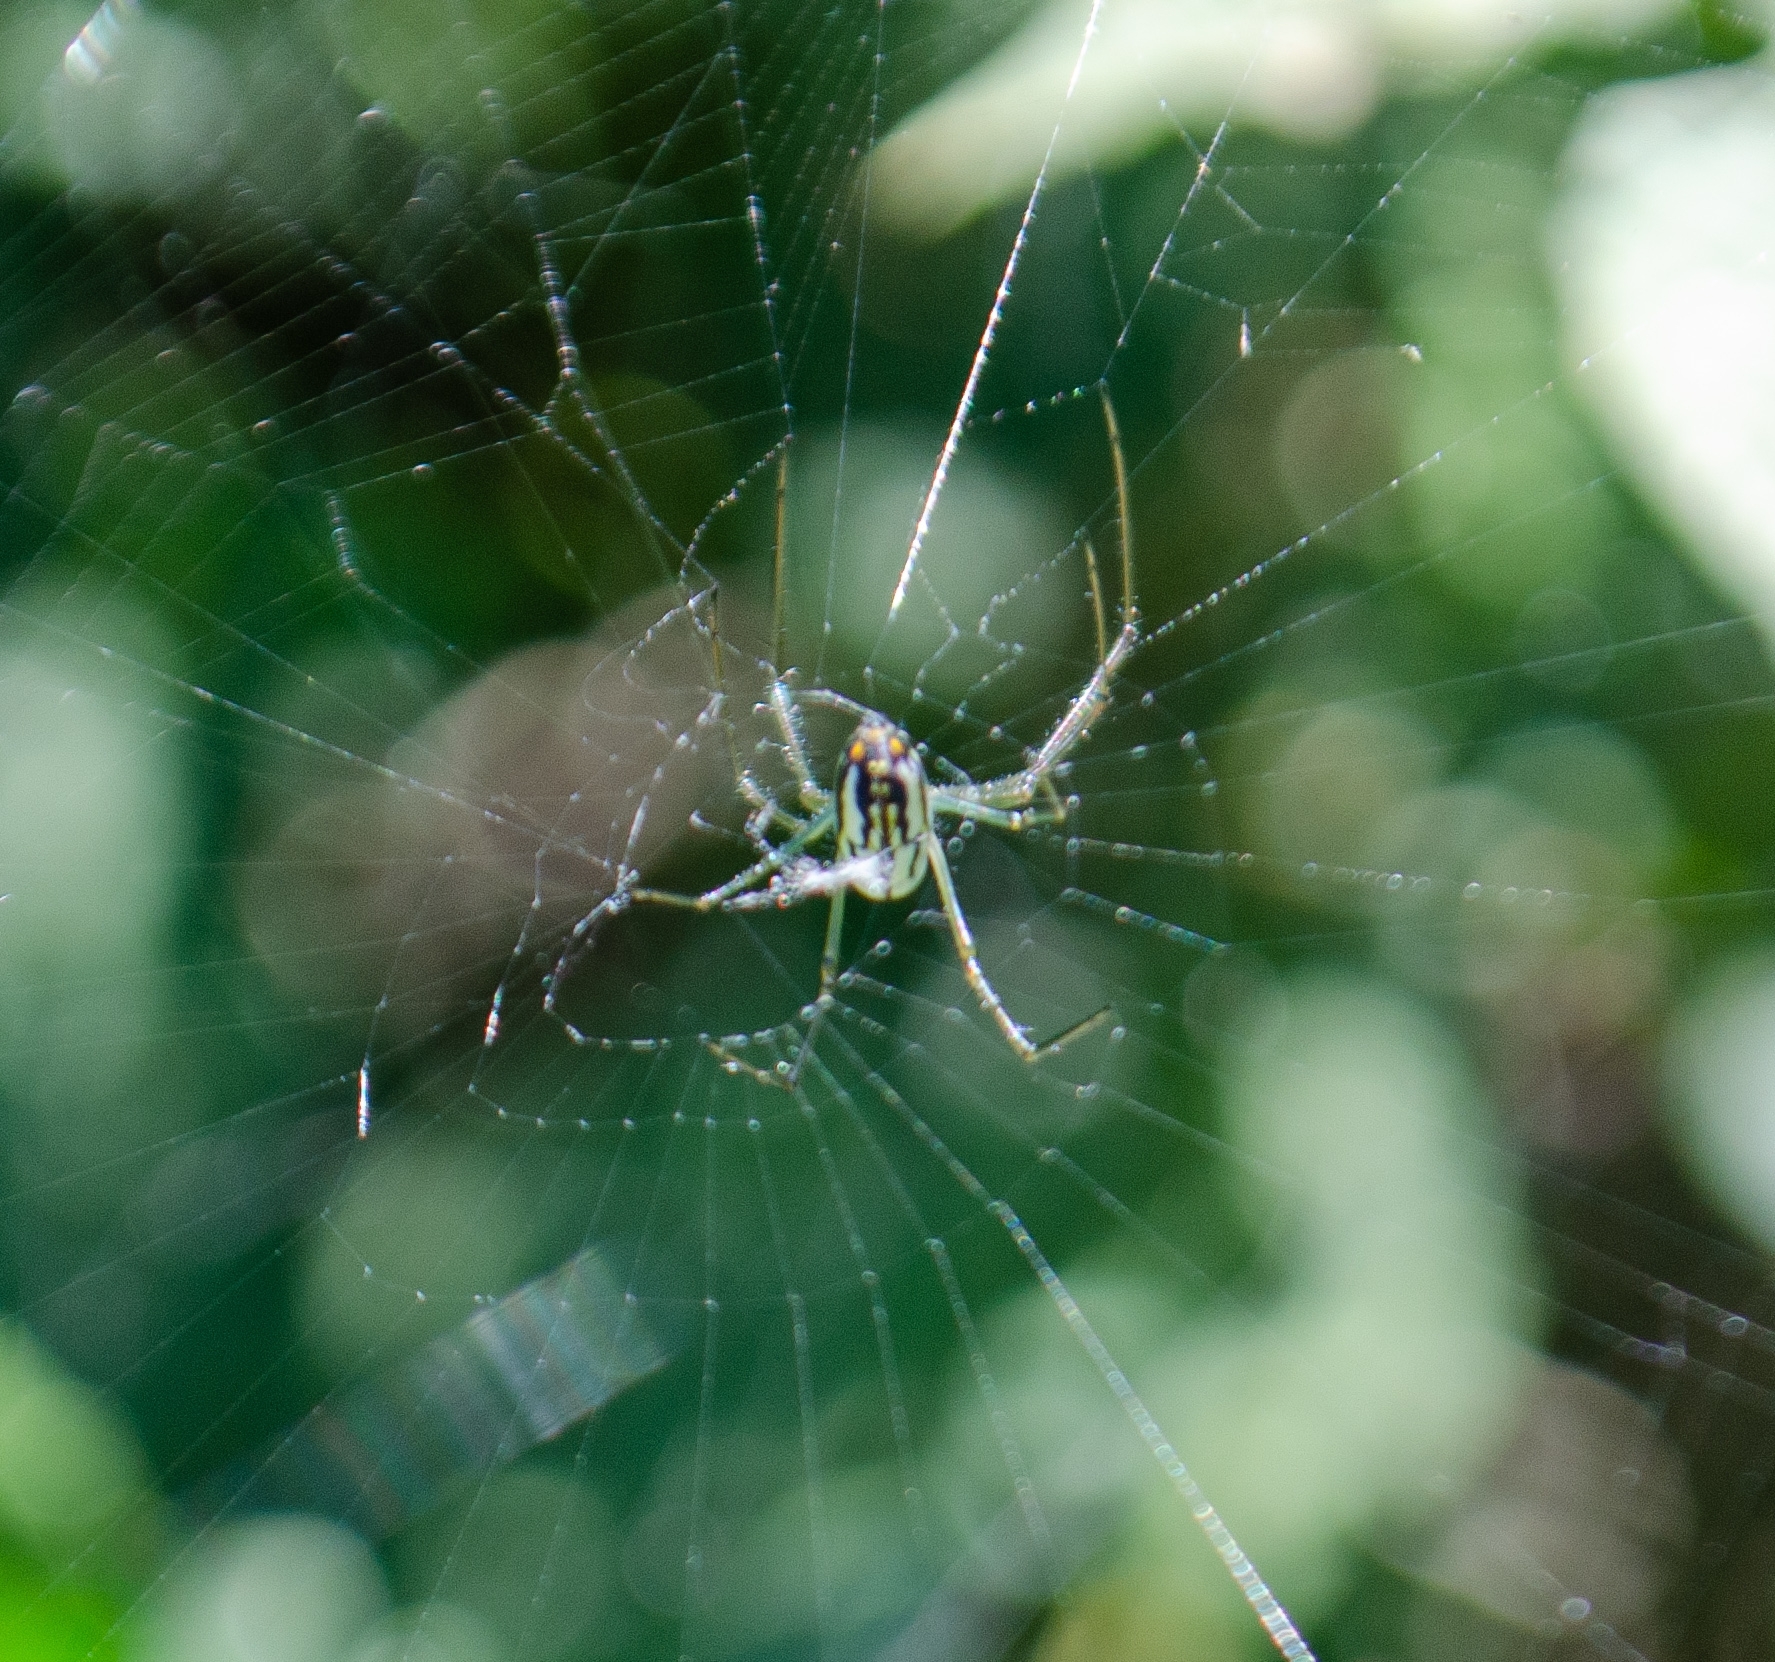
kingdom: Animalia
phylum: Arthropoda
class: Arachnida
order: Araneae
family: Tetragnathidae
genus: Leucauge
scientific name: Leucauge argyra
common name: Longjawed orb weavers
